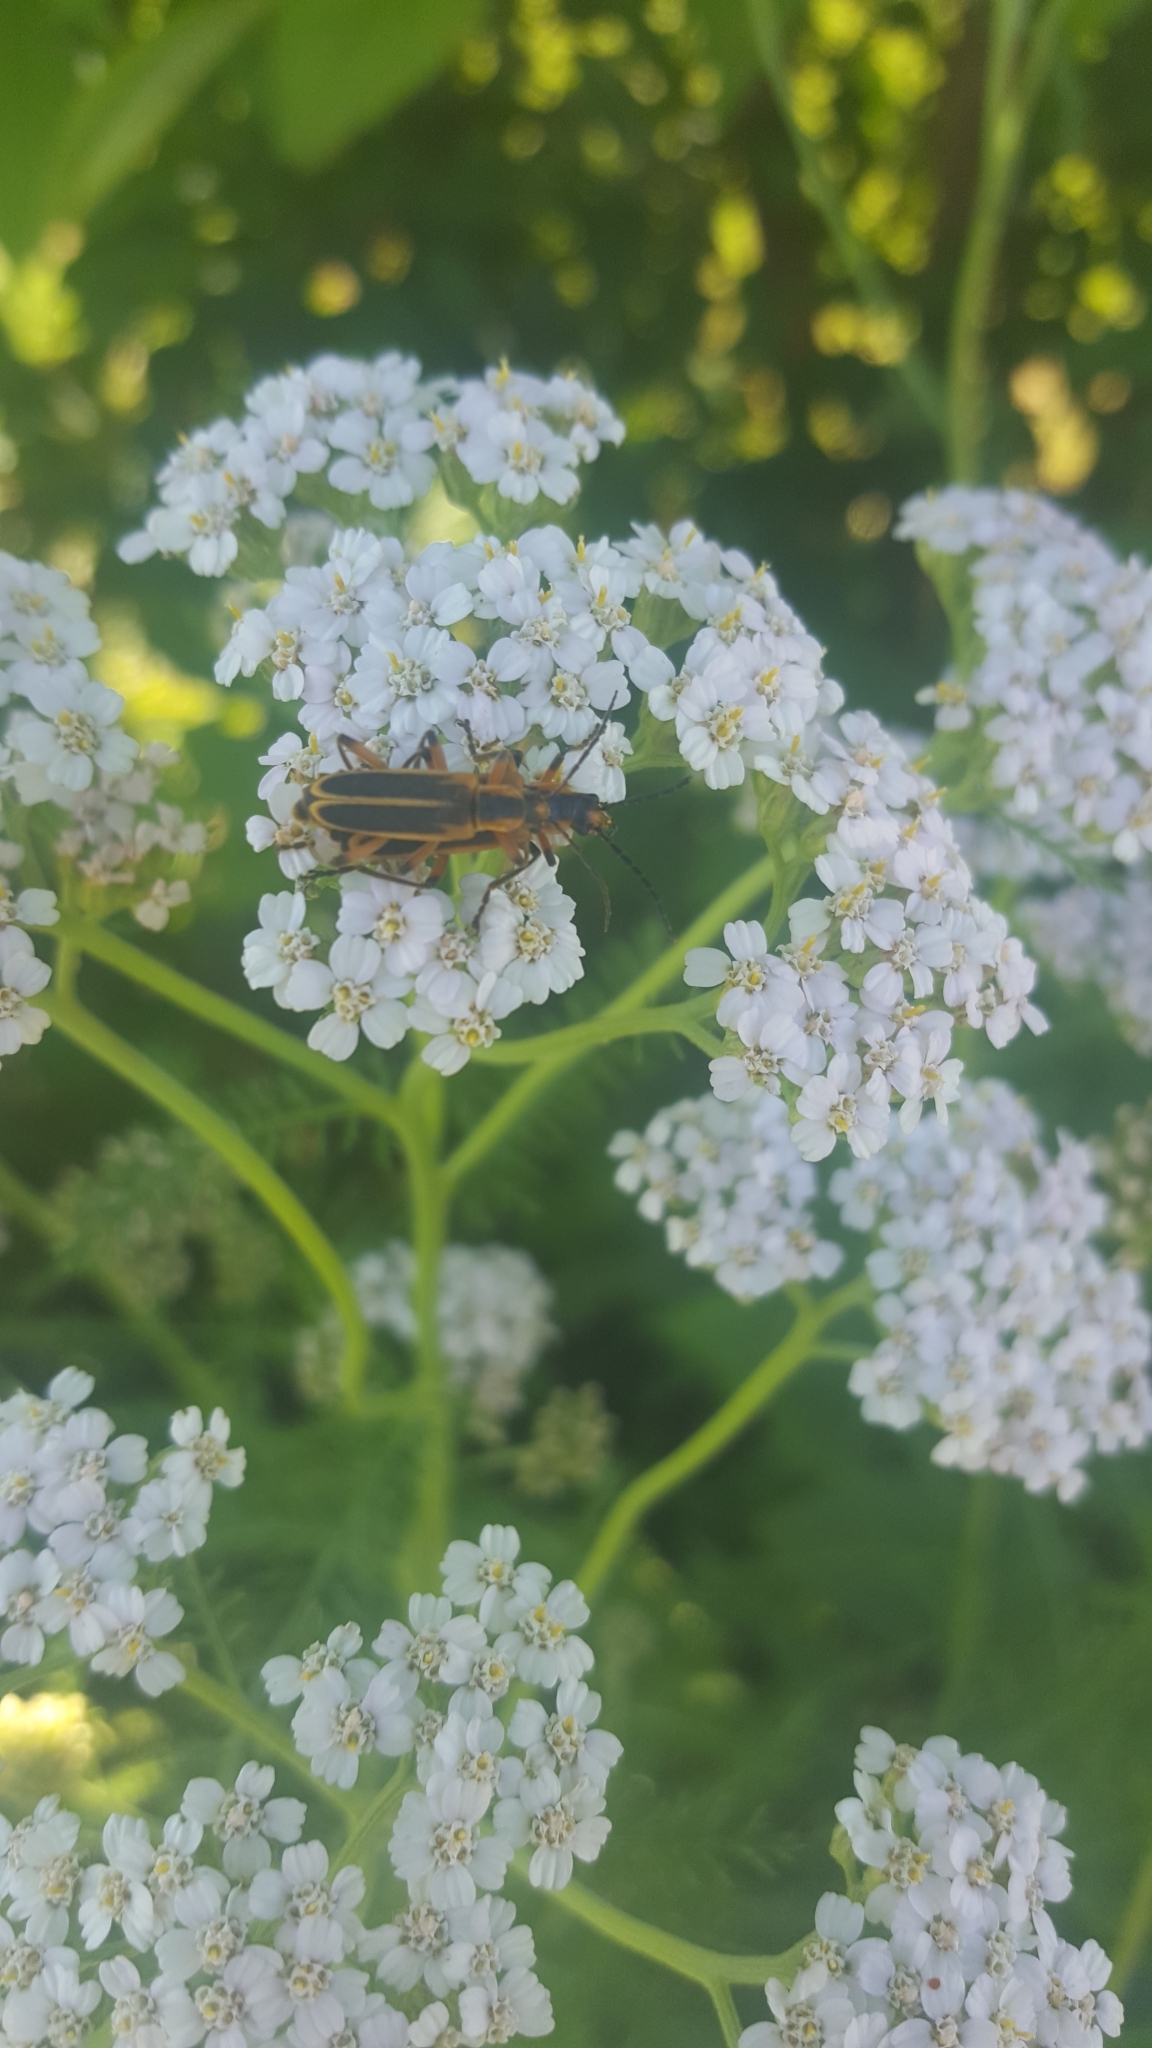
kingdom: Animalia
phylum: Arthropoda
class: Insecta
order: Coleoptera
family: Cantharidae
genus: Chauliognathus
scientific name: Chauliognathus marginatus
